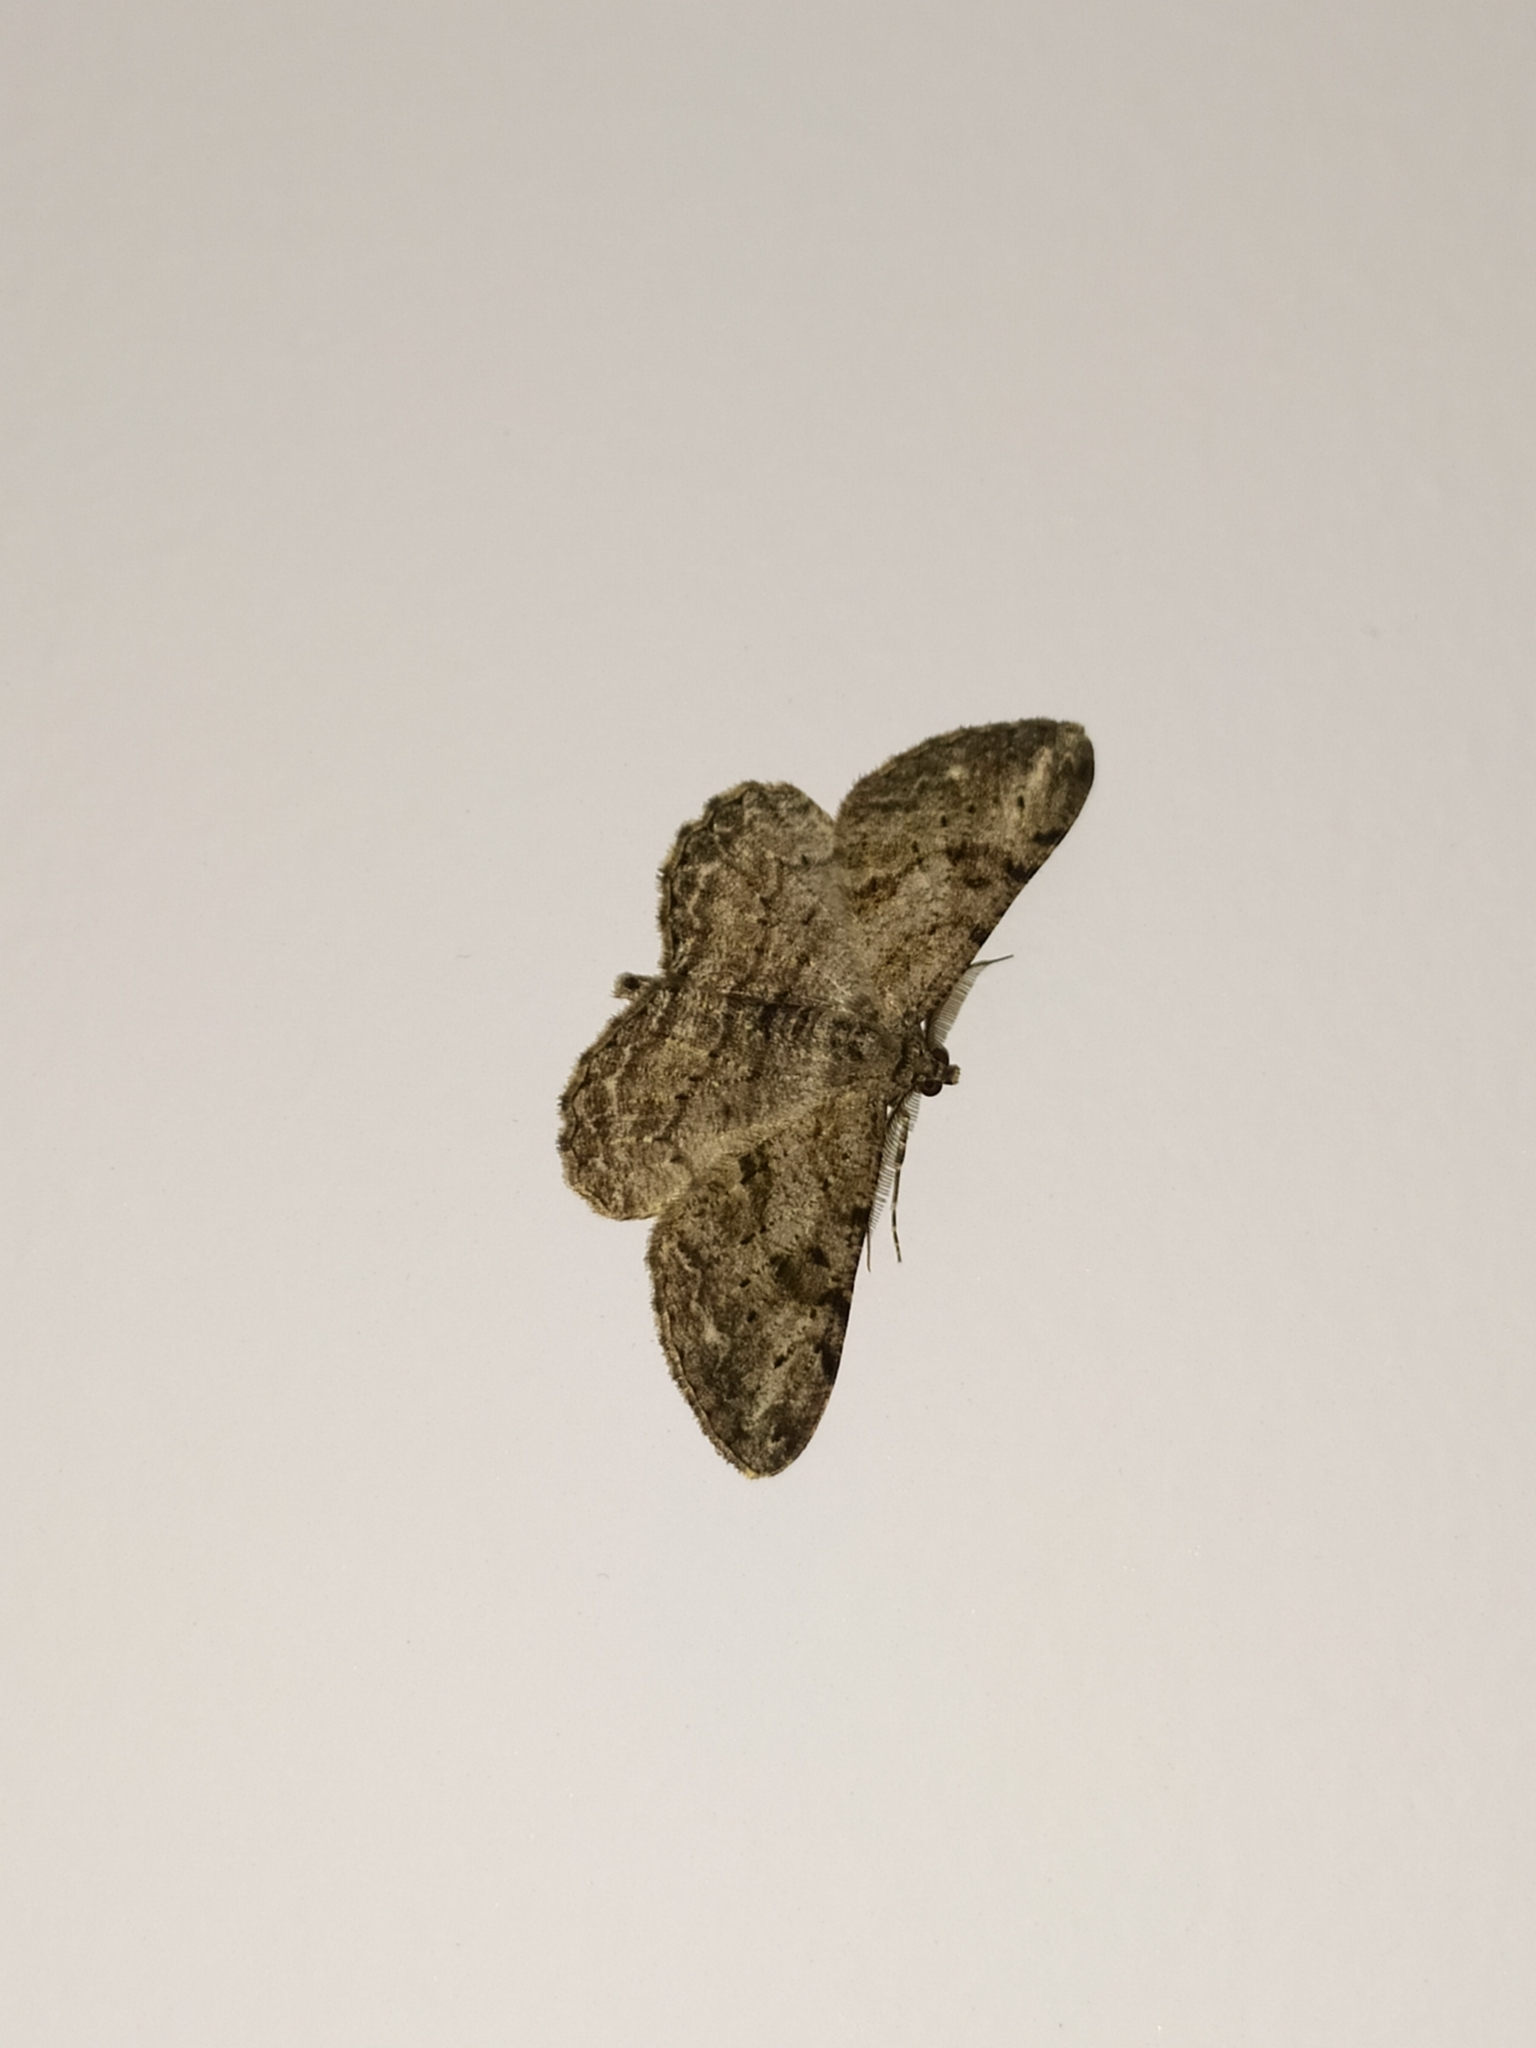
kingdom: Animalia
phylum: Arthropoda
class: Insecta
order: Lepidoptera
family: Geometridae
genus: Peribatodes
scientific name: Peribatodes rhomboidaria
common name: Willow beauty
